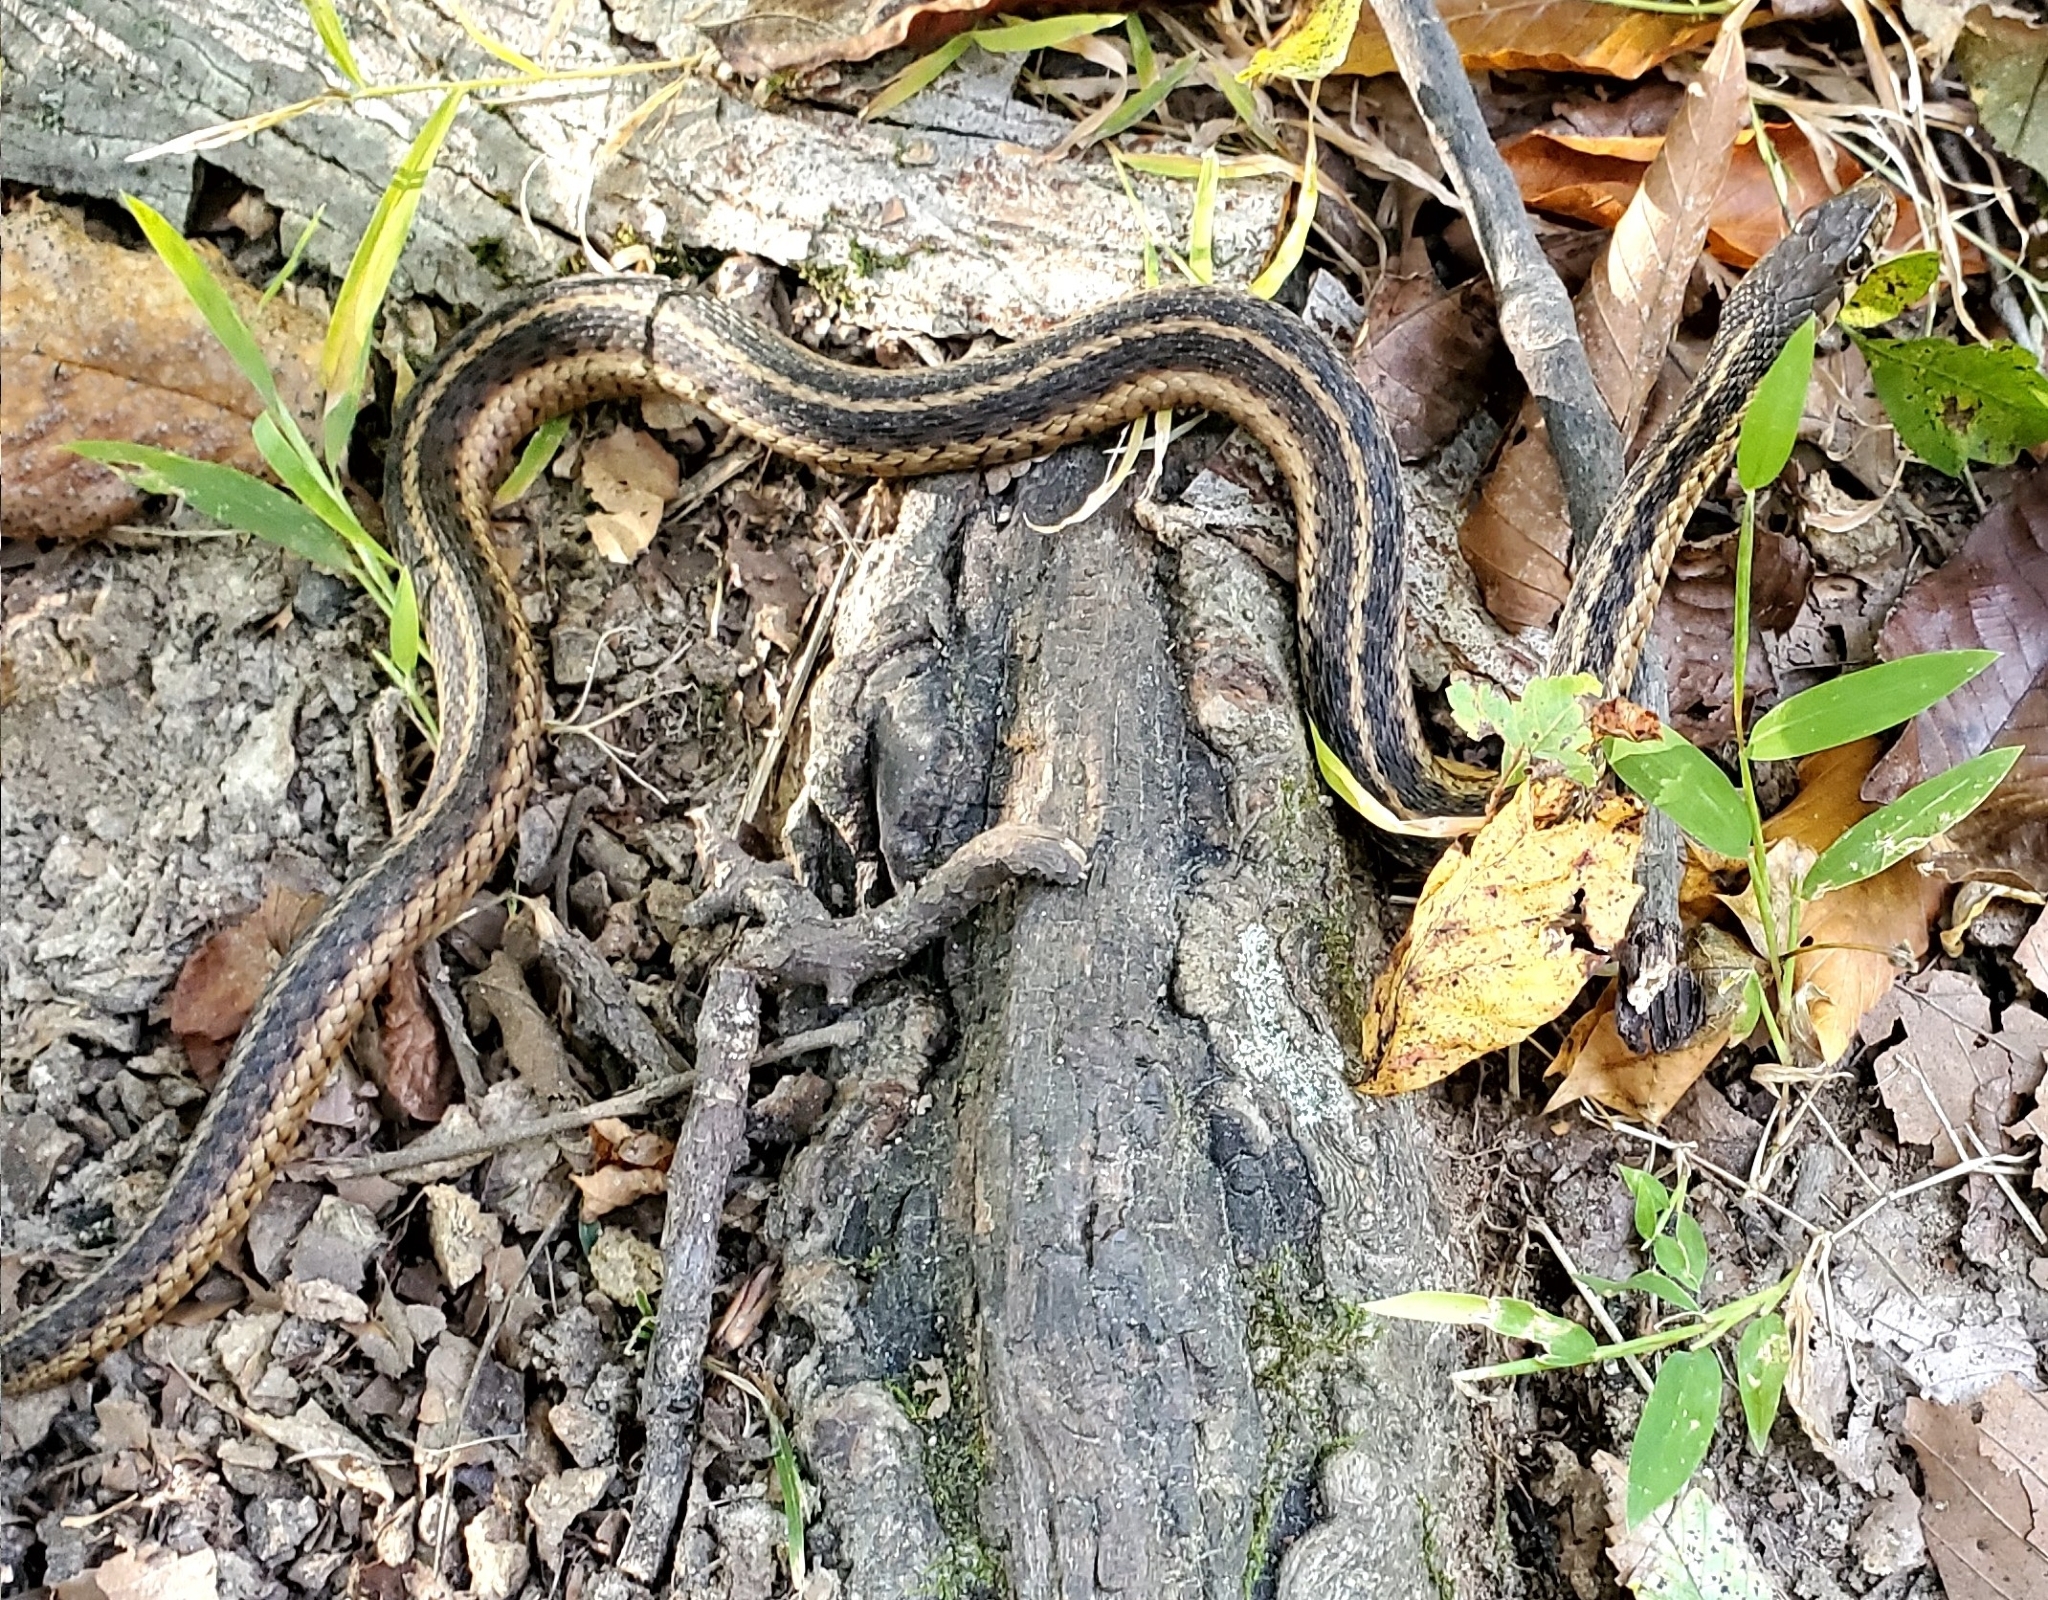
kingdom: Animalia
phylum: Chordata
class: Squamata
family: Colubridae
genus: Thamnophis
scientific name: Thamnophis sirtalis
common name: Common garter snake
